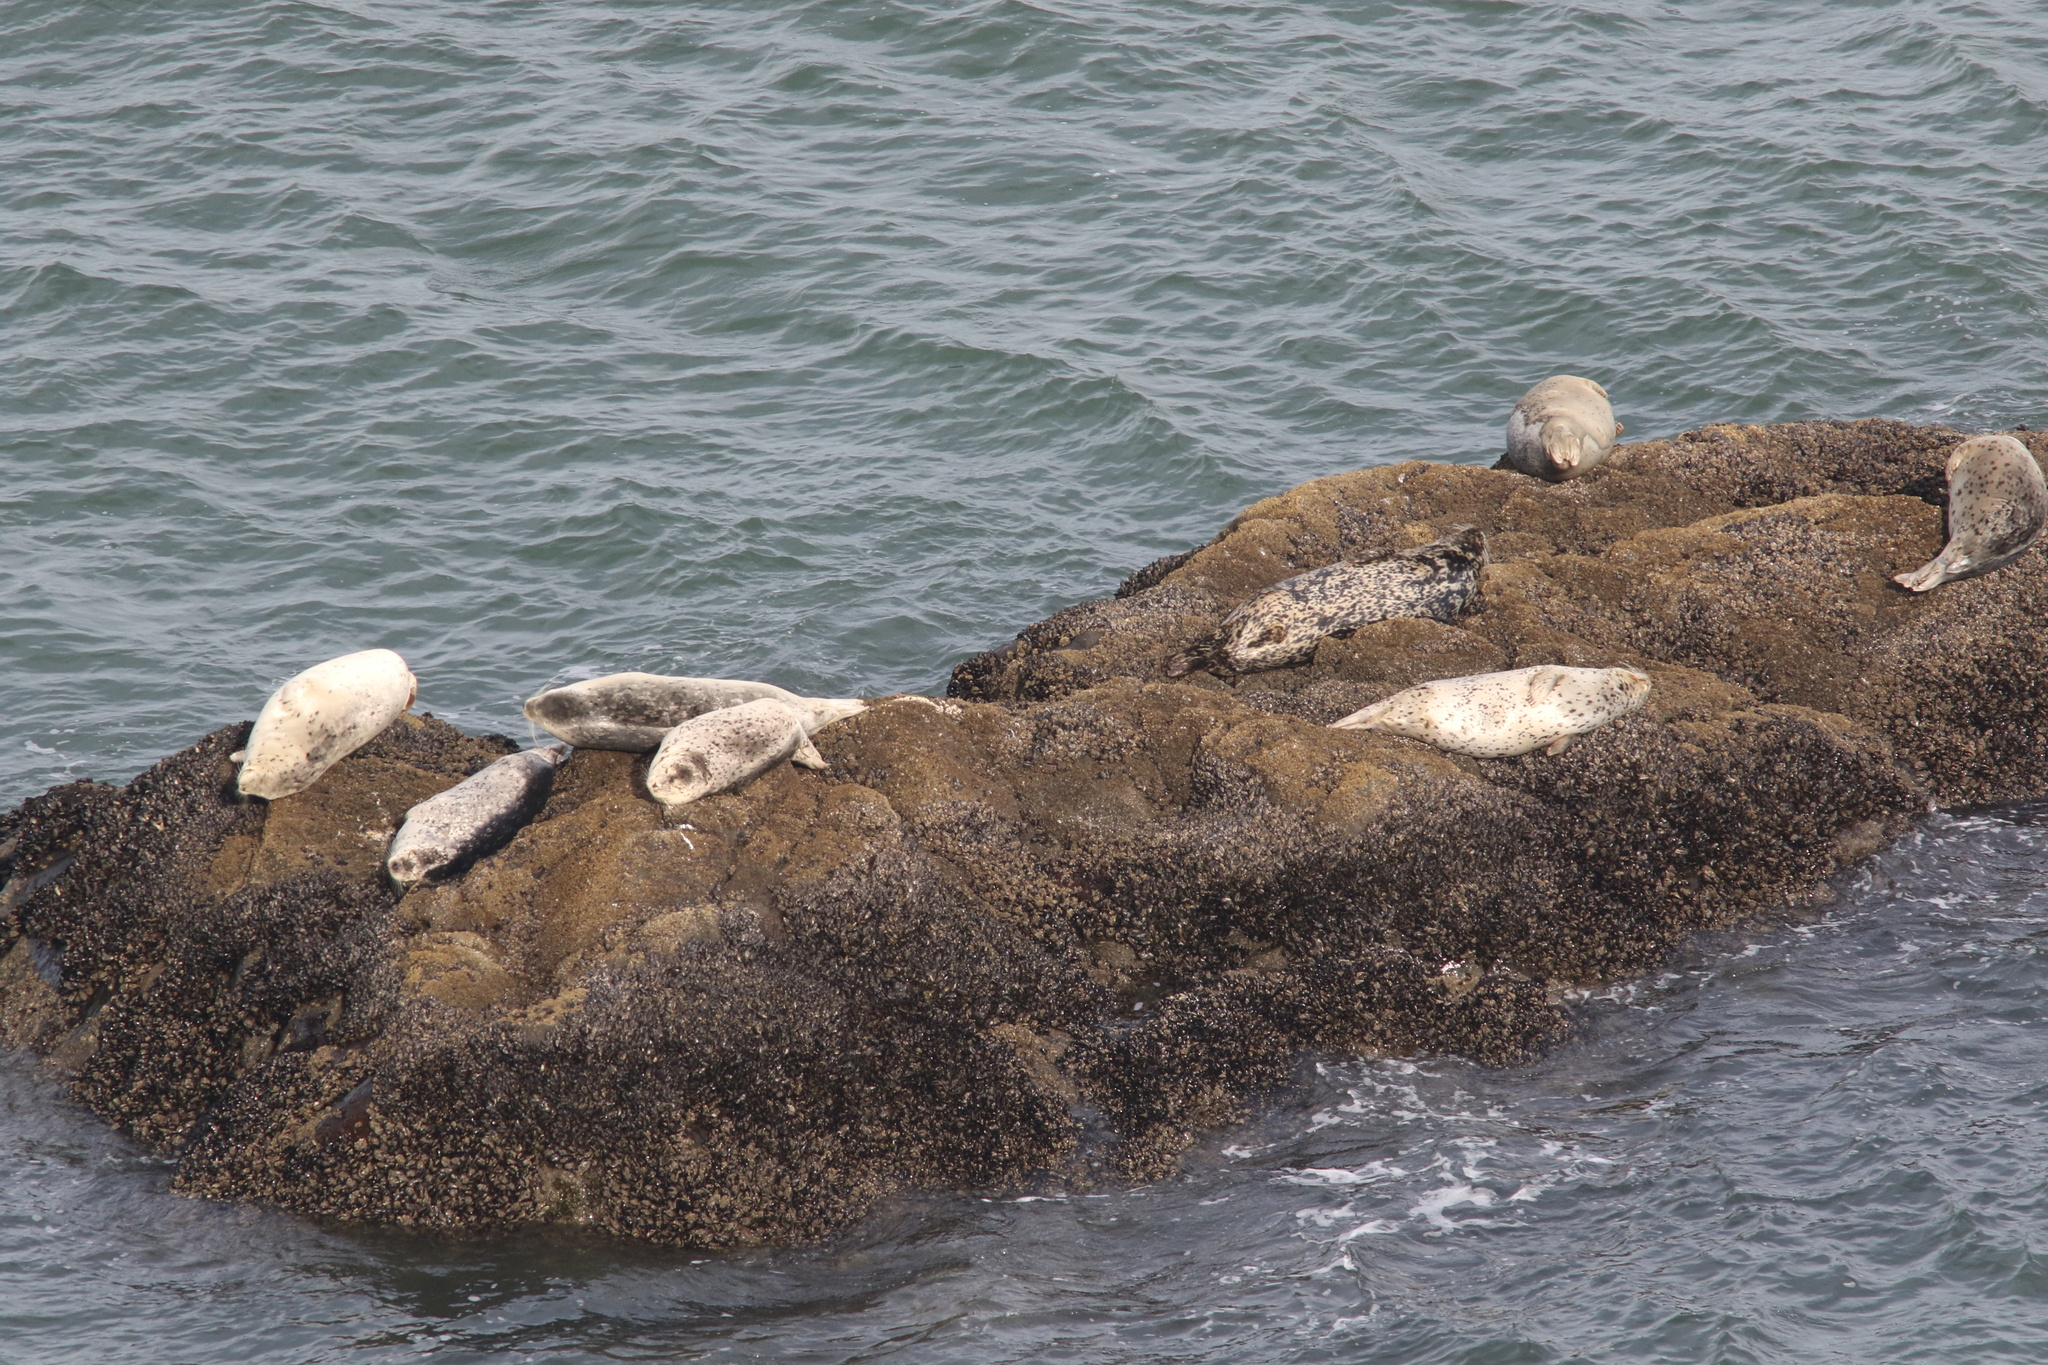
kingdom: Animalia
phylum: Chordata
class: Mammalia
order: Carnivora
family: Phocidae
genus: Phoca
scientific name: Phoca vitulina
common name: Harbor seal
